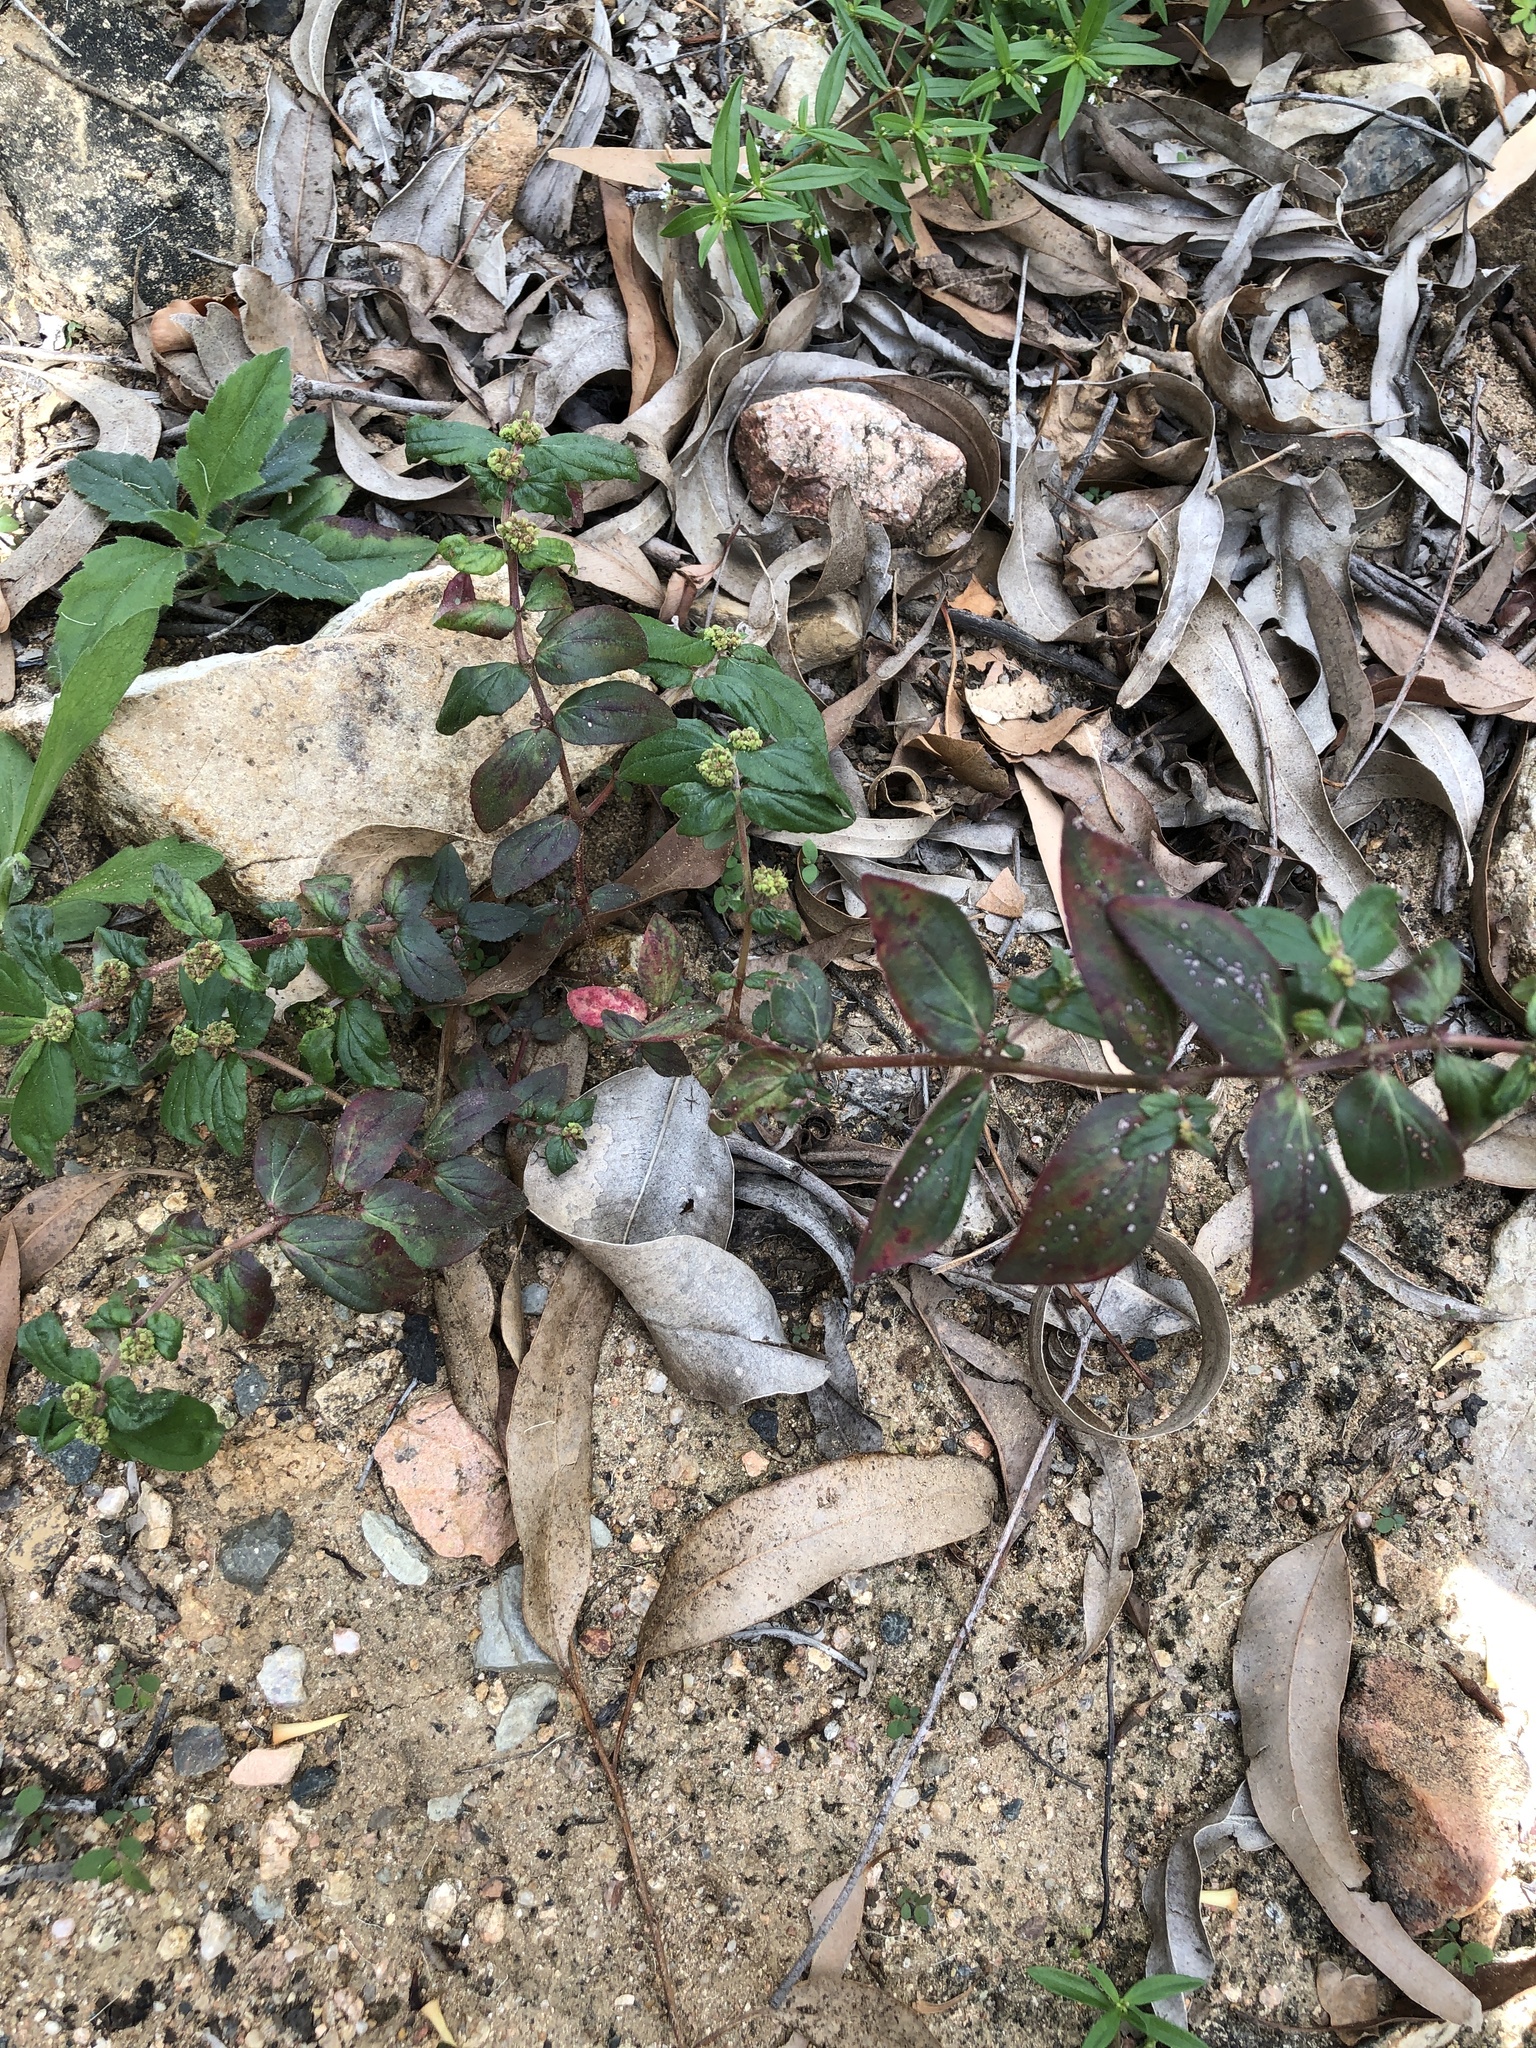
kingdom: Plantae
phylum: Tracheophyta
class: Magnoliopsida
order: Malpighiales
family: Euphorbiaceae
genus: Euphorbia
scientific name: Euphorbia hirta
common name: Pillpod sandmat
